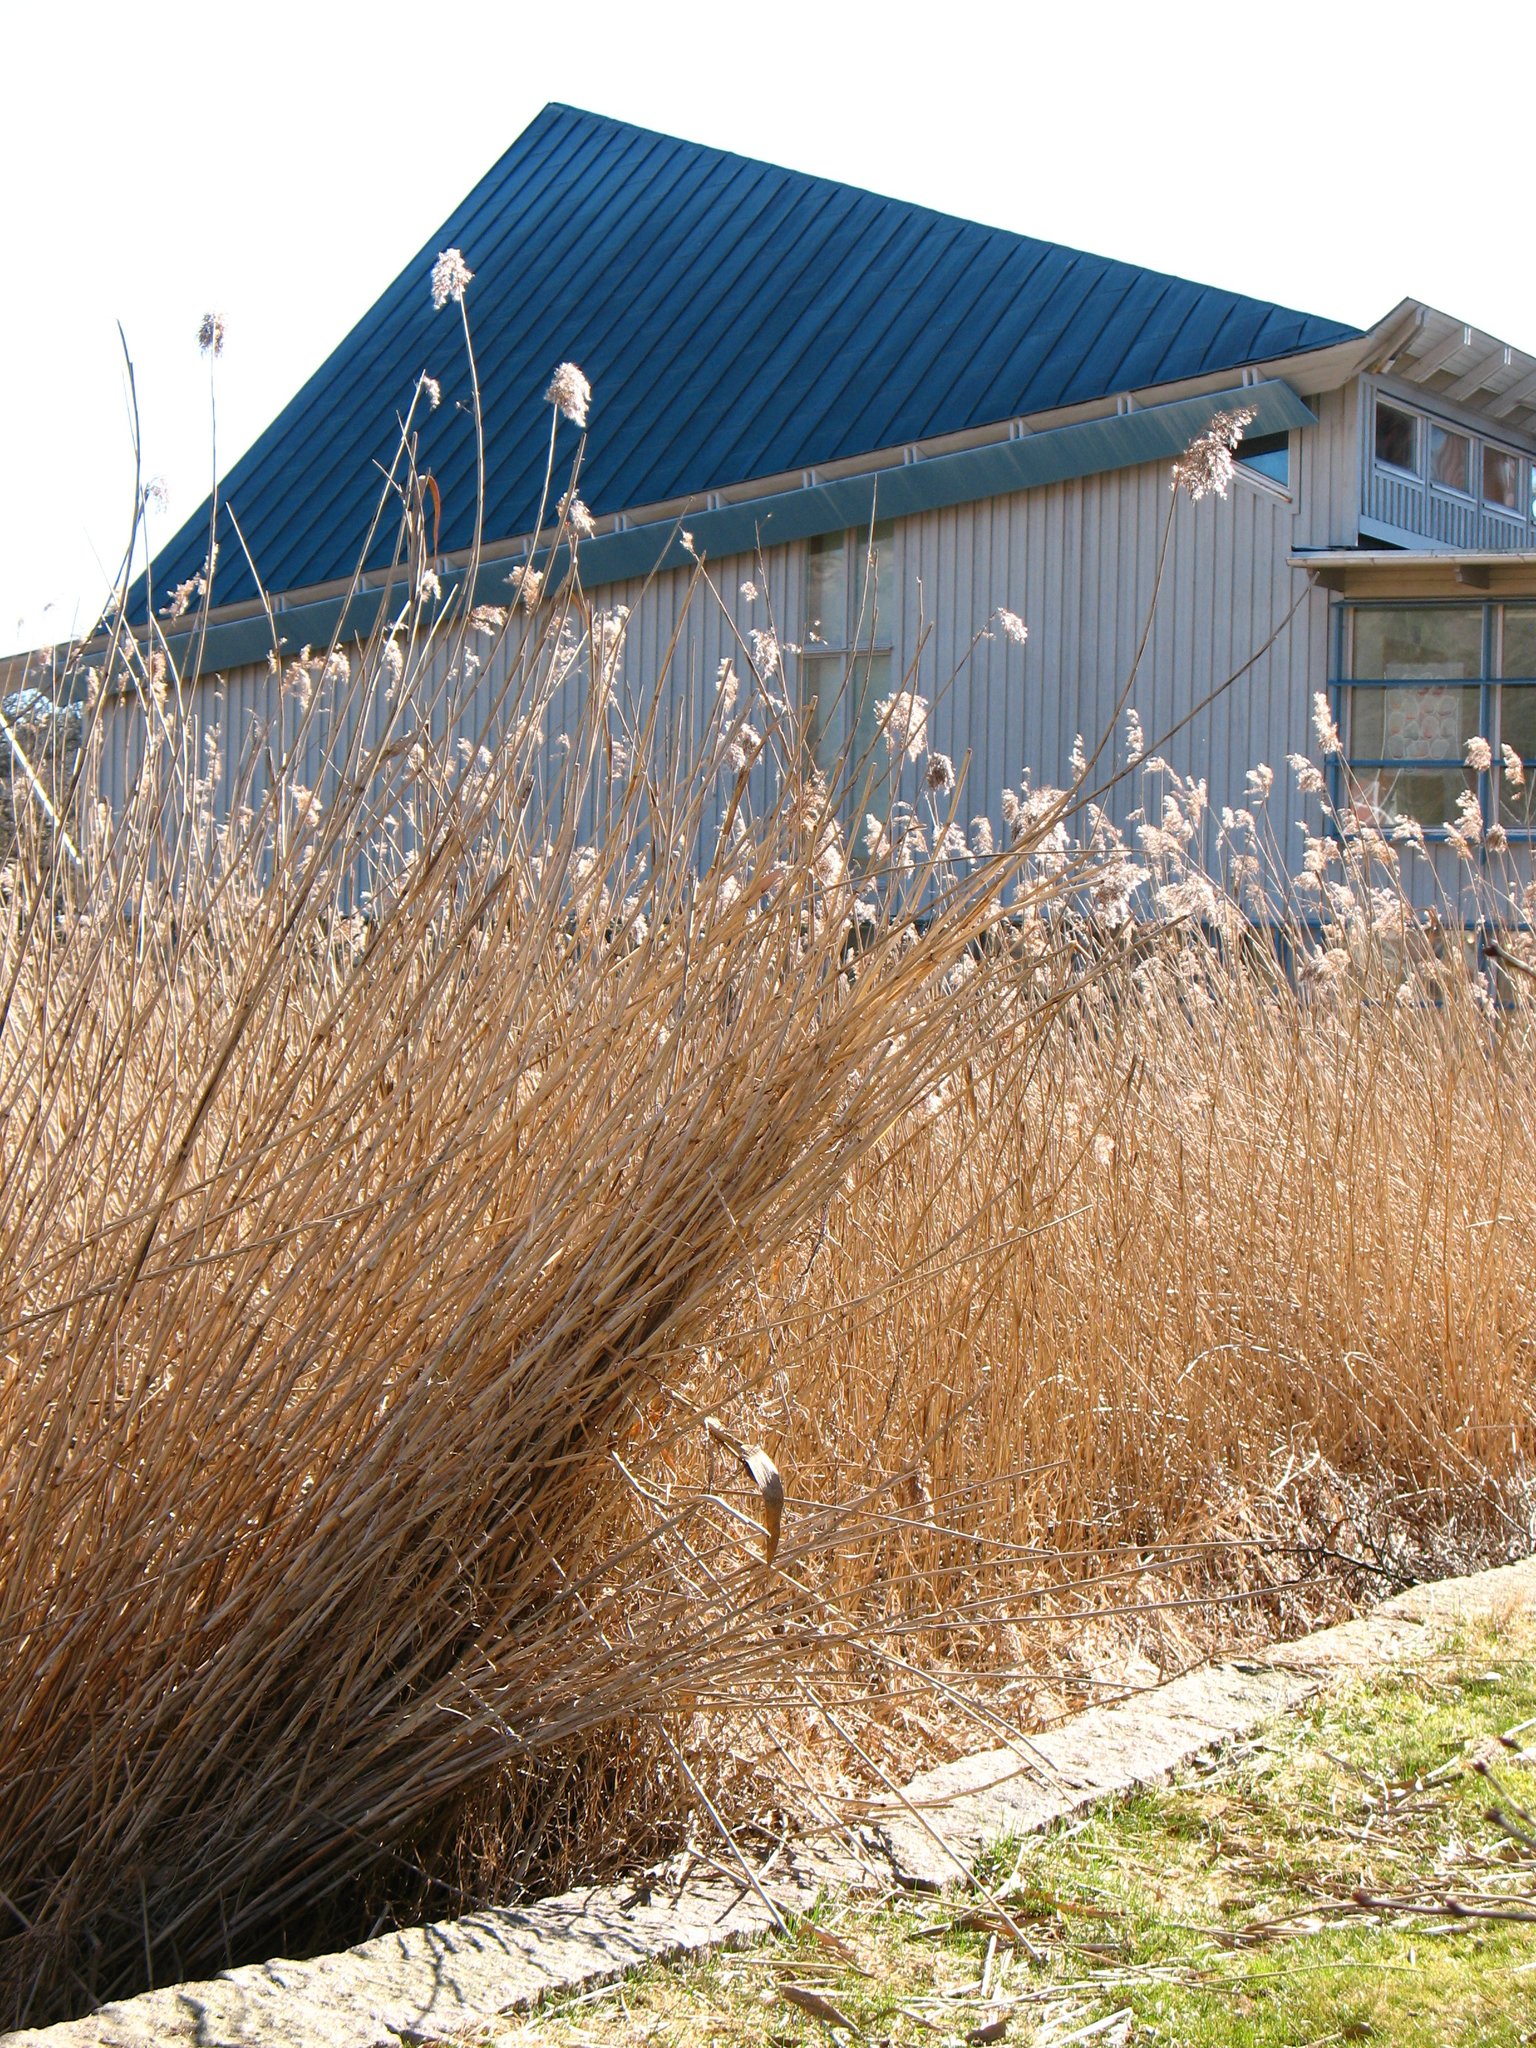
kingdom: Plantae
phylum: Tracheophyta
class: Liliopsida
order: Poales
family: Poaceae
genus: Phragmites
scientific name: Phragmites australis
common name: Common reed
